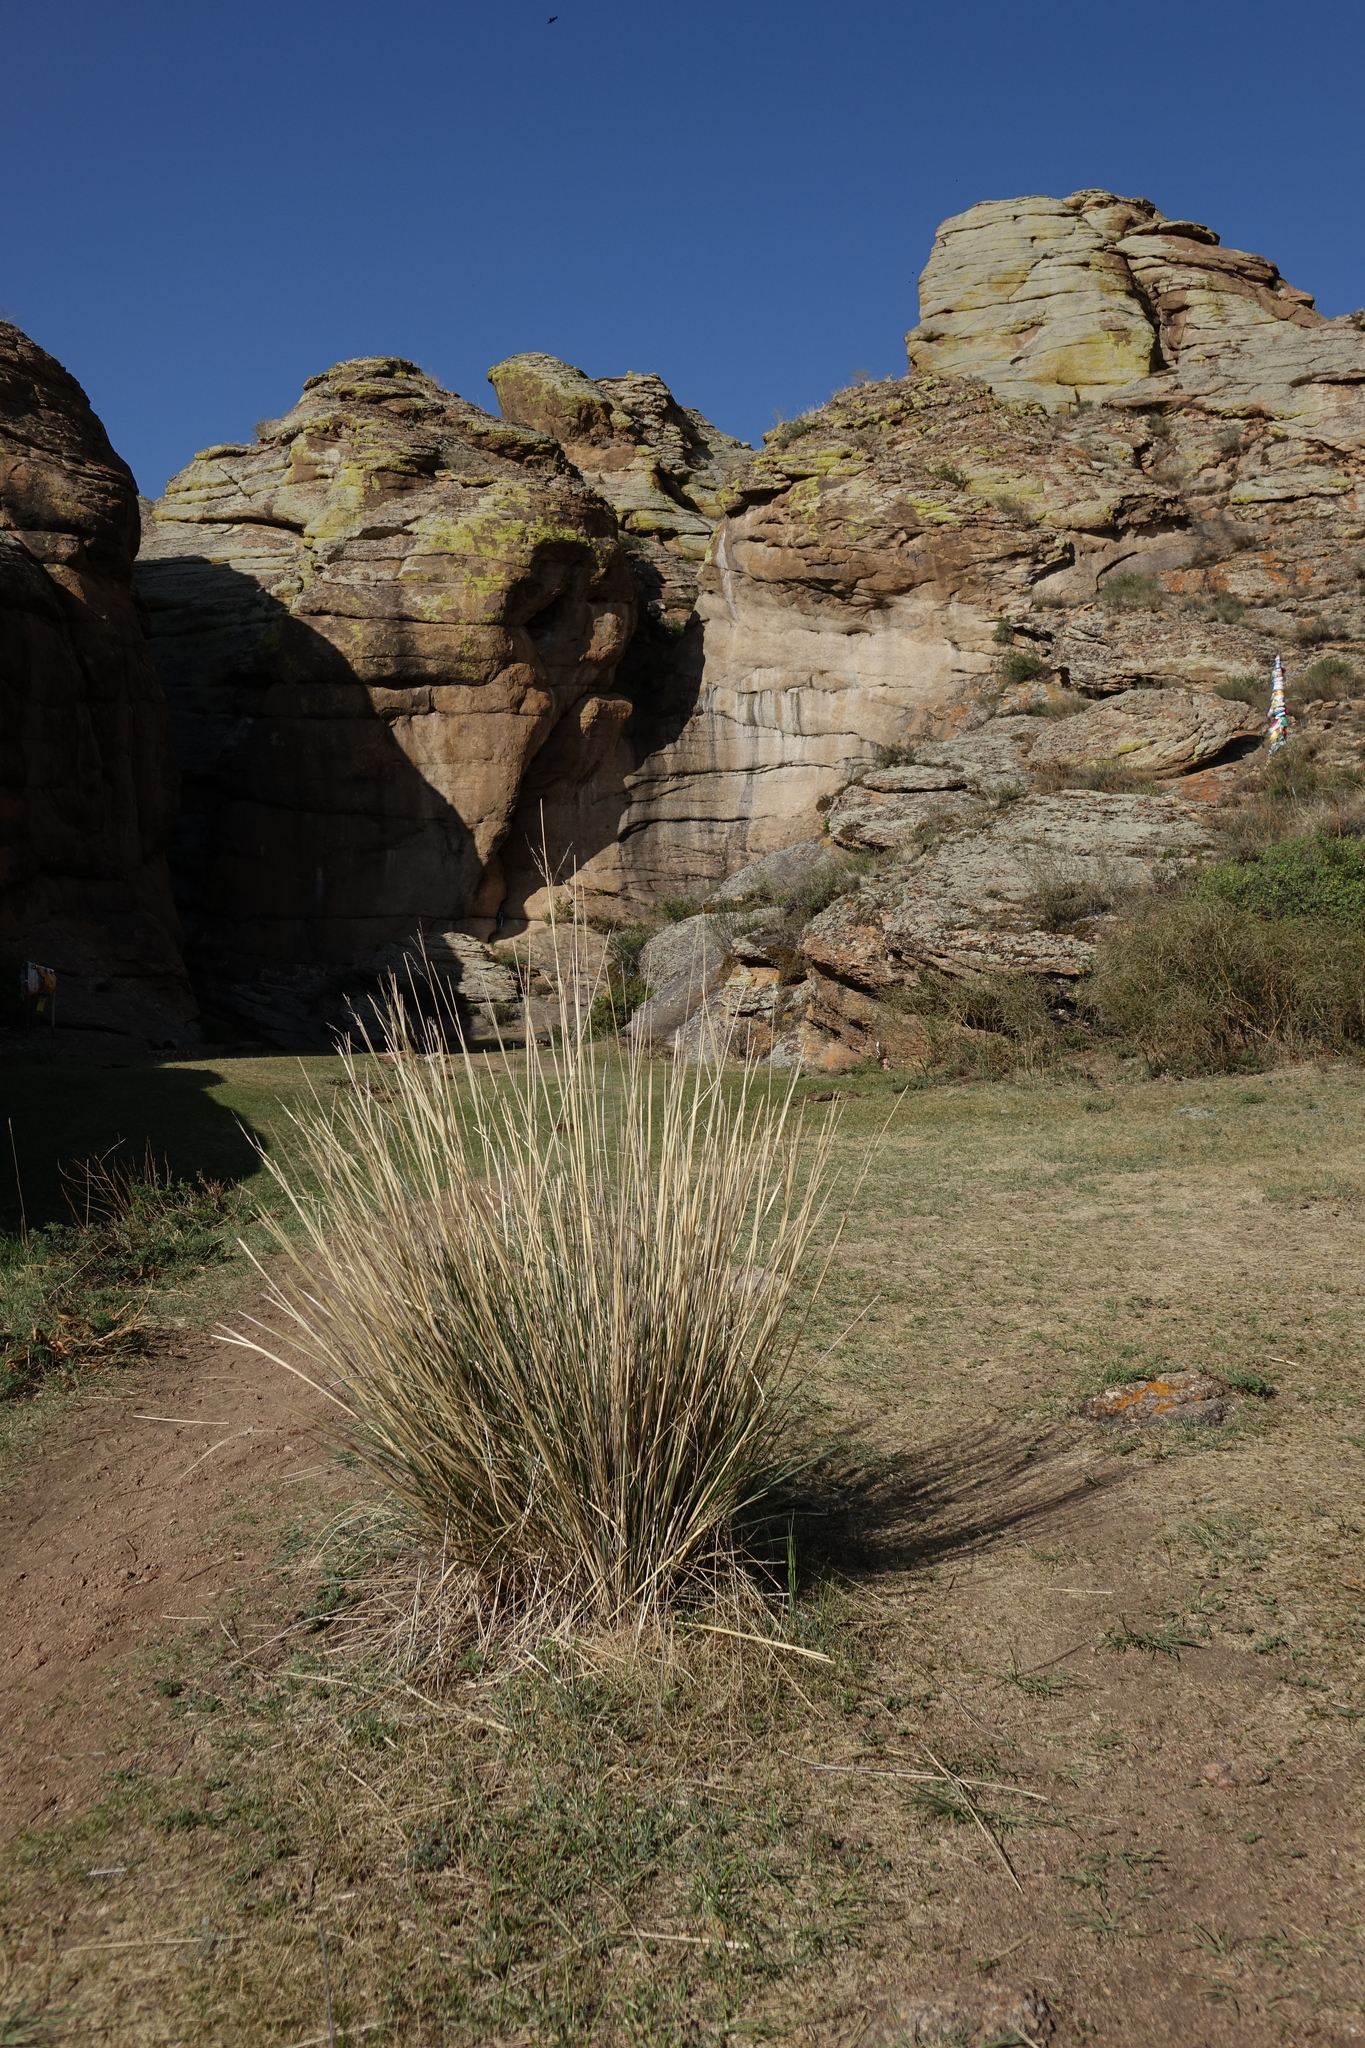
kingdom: Plantae
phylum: Tracheophyta
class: Liliopsida
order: Poales
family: Poaceae
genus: Neotrinia
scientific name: Neotrinia splendens
